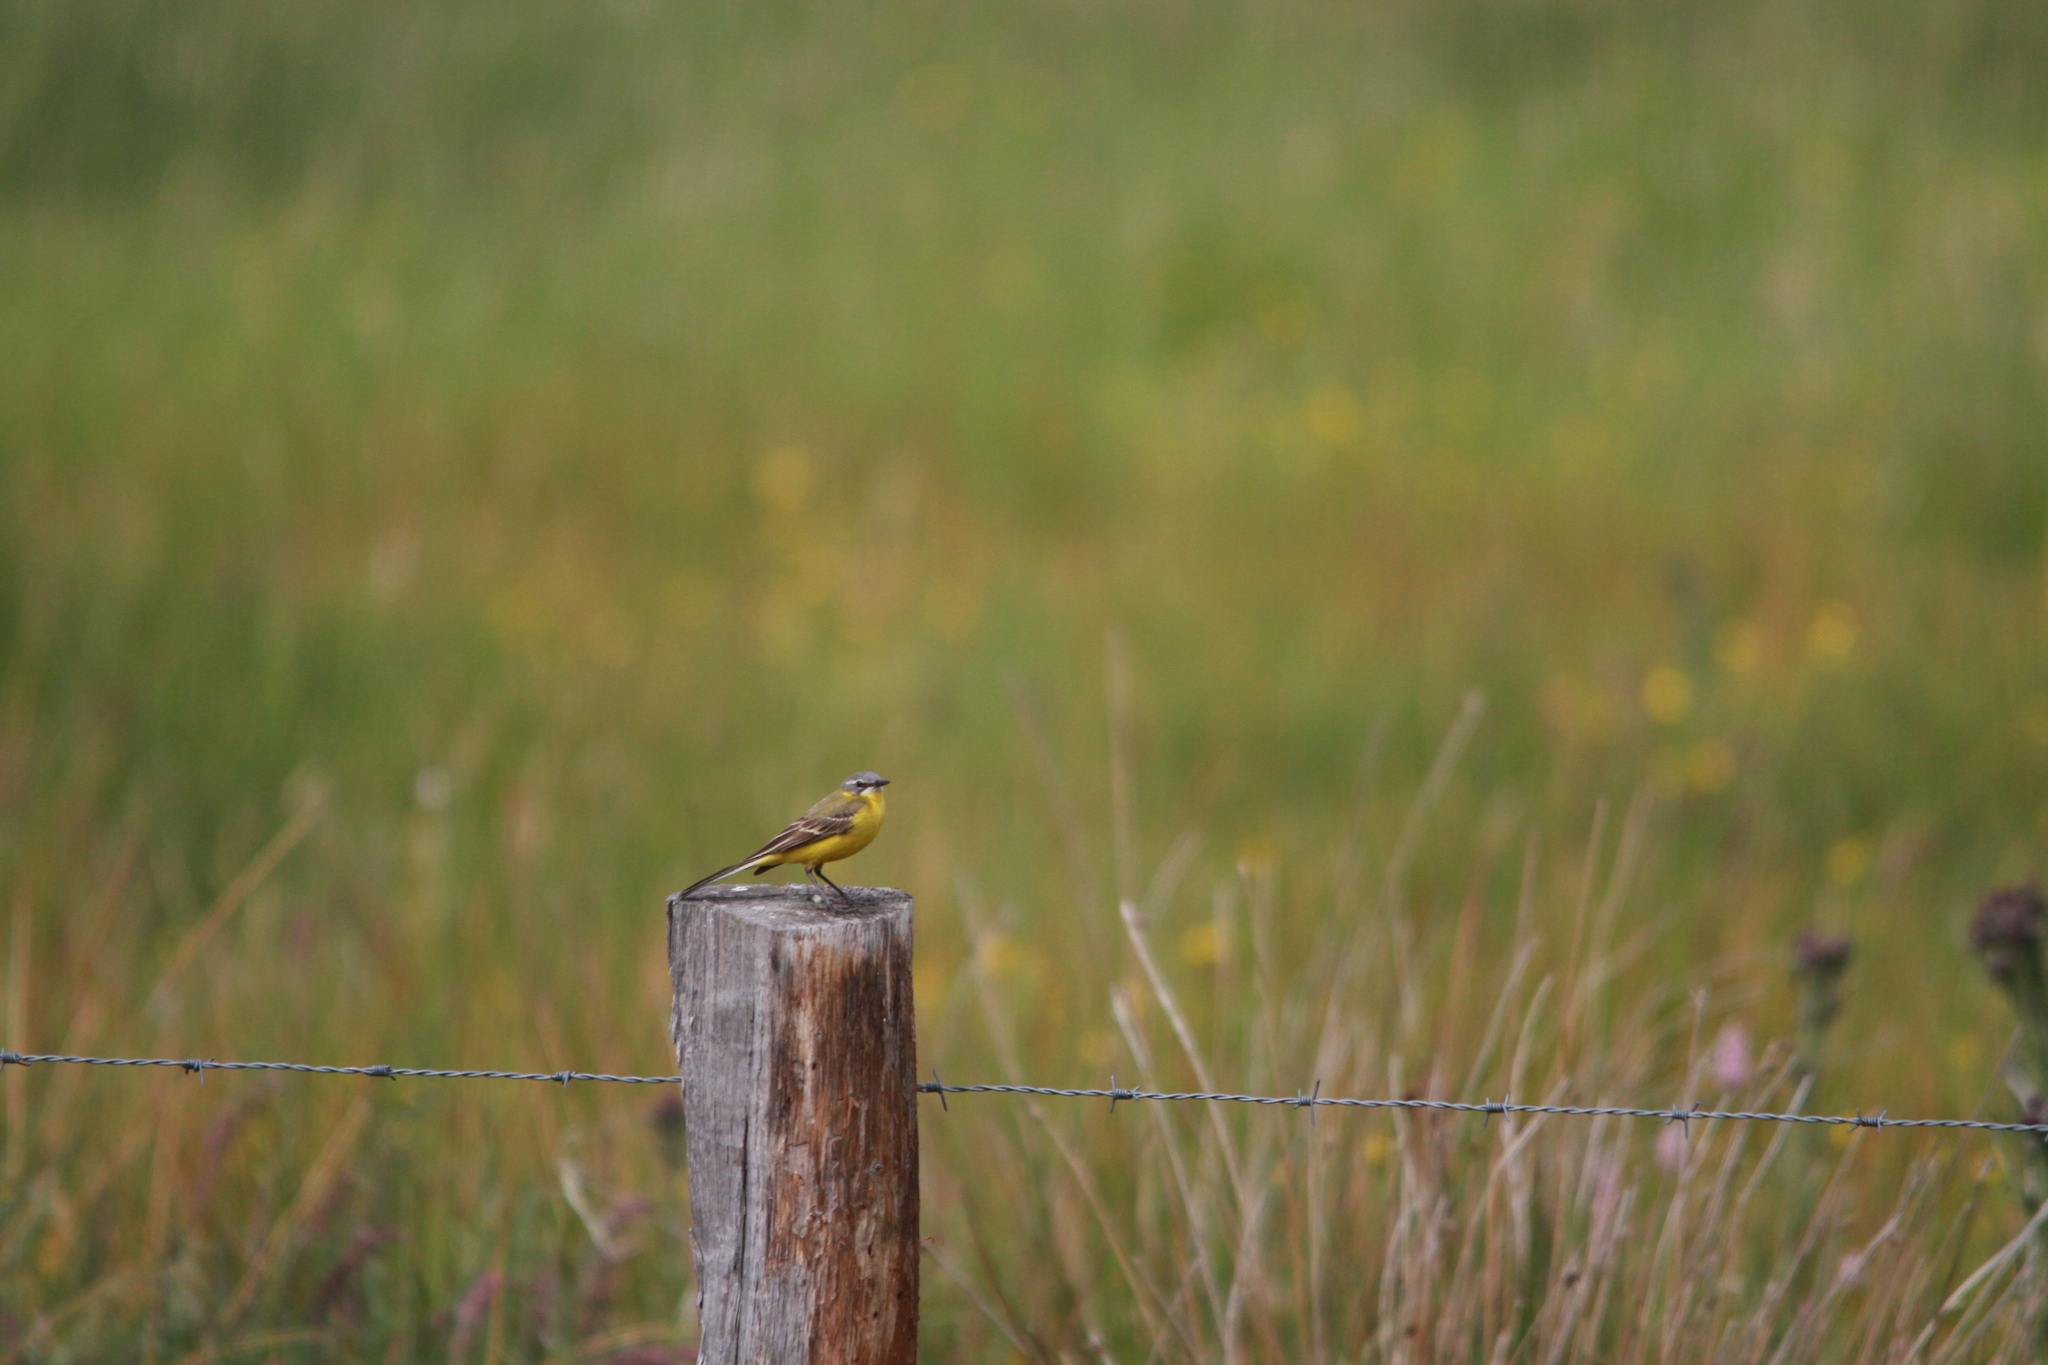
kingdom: Animalia
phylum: Chordata
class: Aves
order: Passeriformes
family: Motacillidae
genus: Motacilla
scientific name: Motacilla flava
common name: Western yellow wagtail
